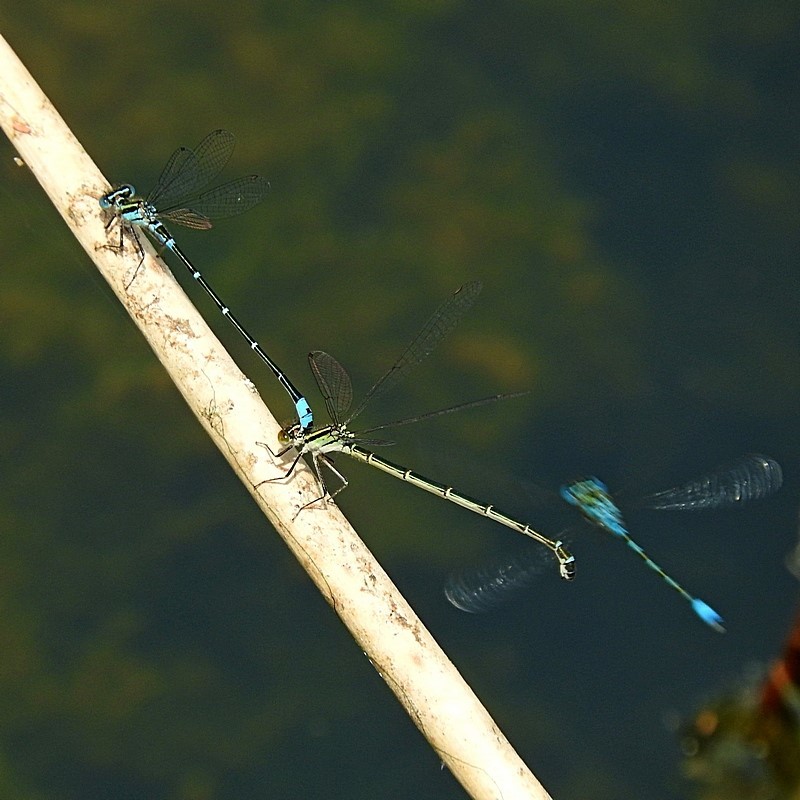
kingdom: Animalia
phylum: Arthropoda
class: Insecta
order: Odonata
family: Coenagrionidae
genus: Austroagrion
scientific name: Austroagrion watsoni
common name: Eastern billabongfly
